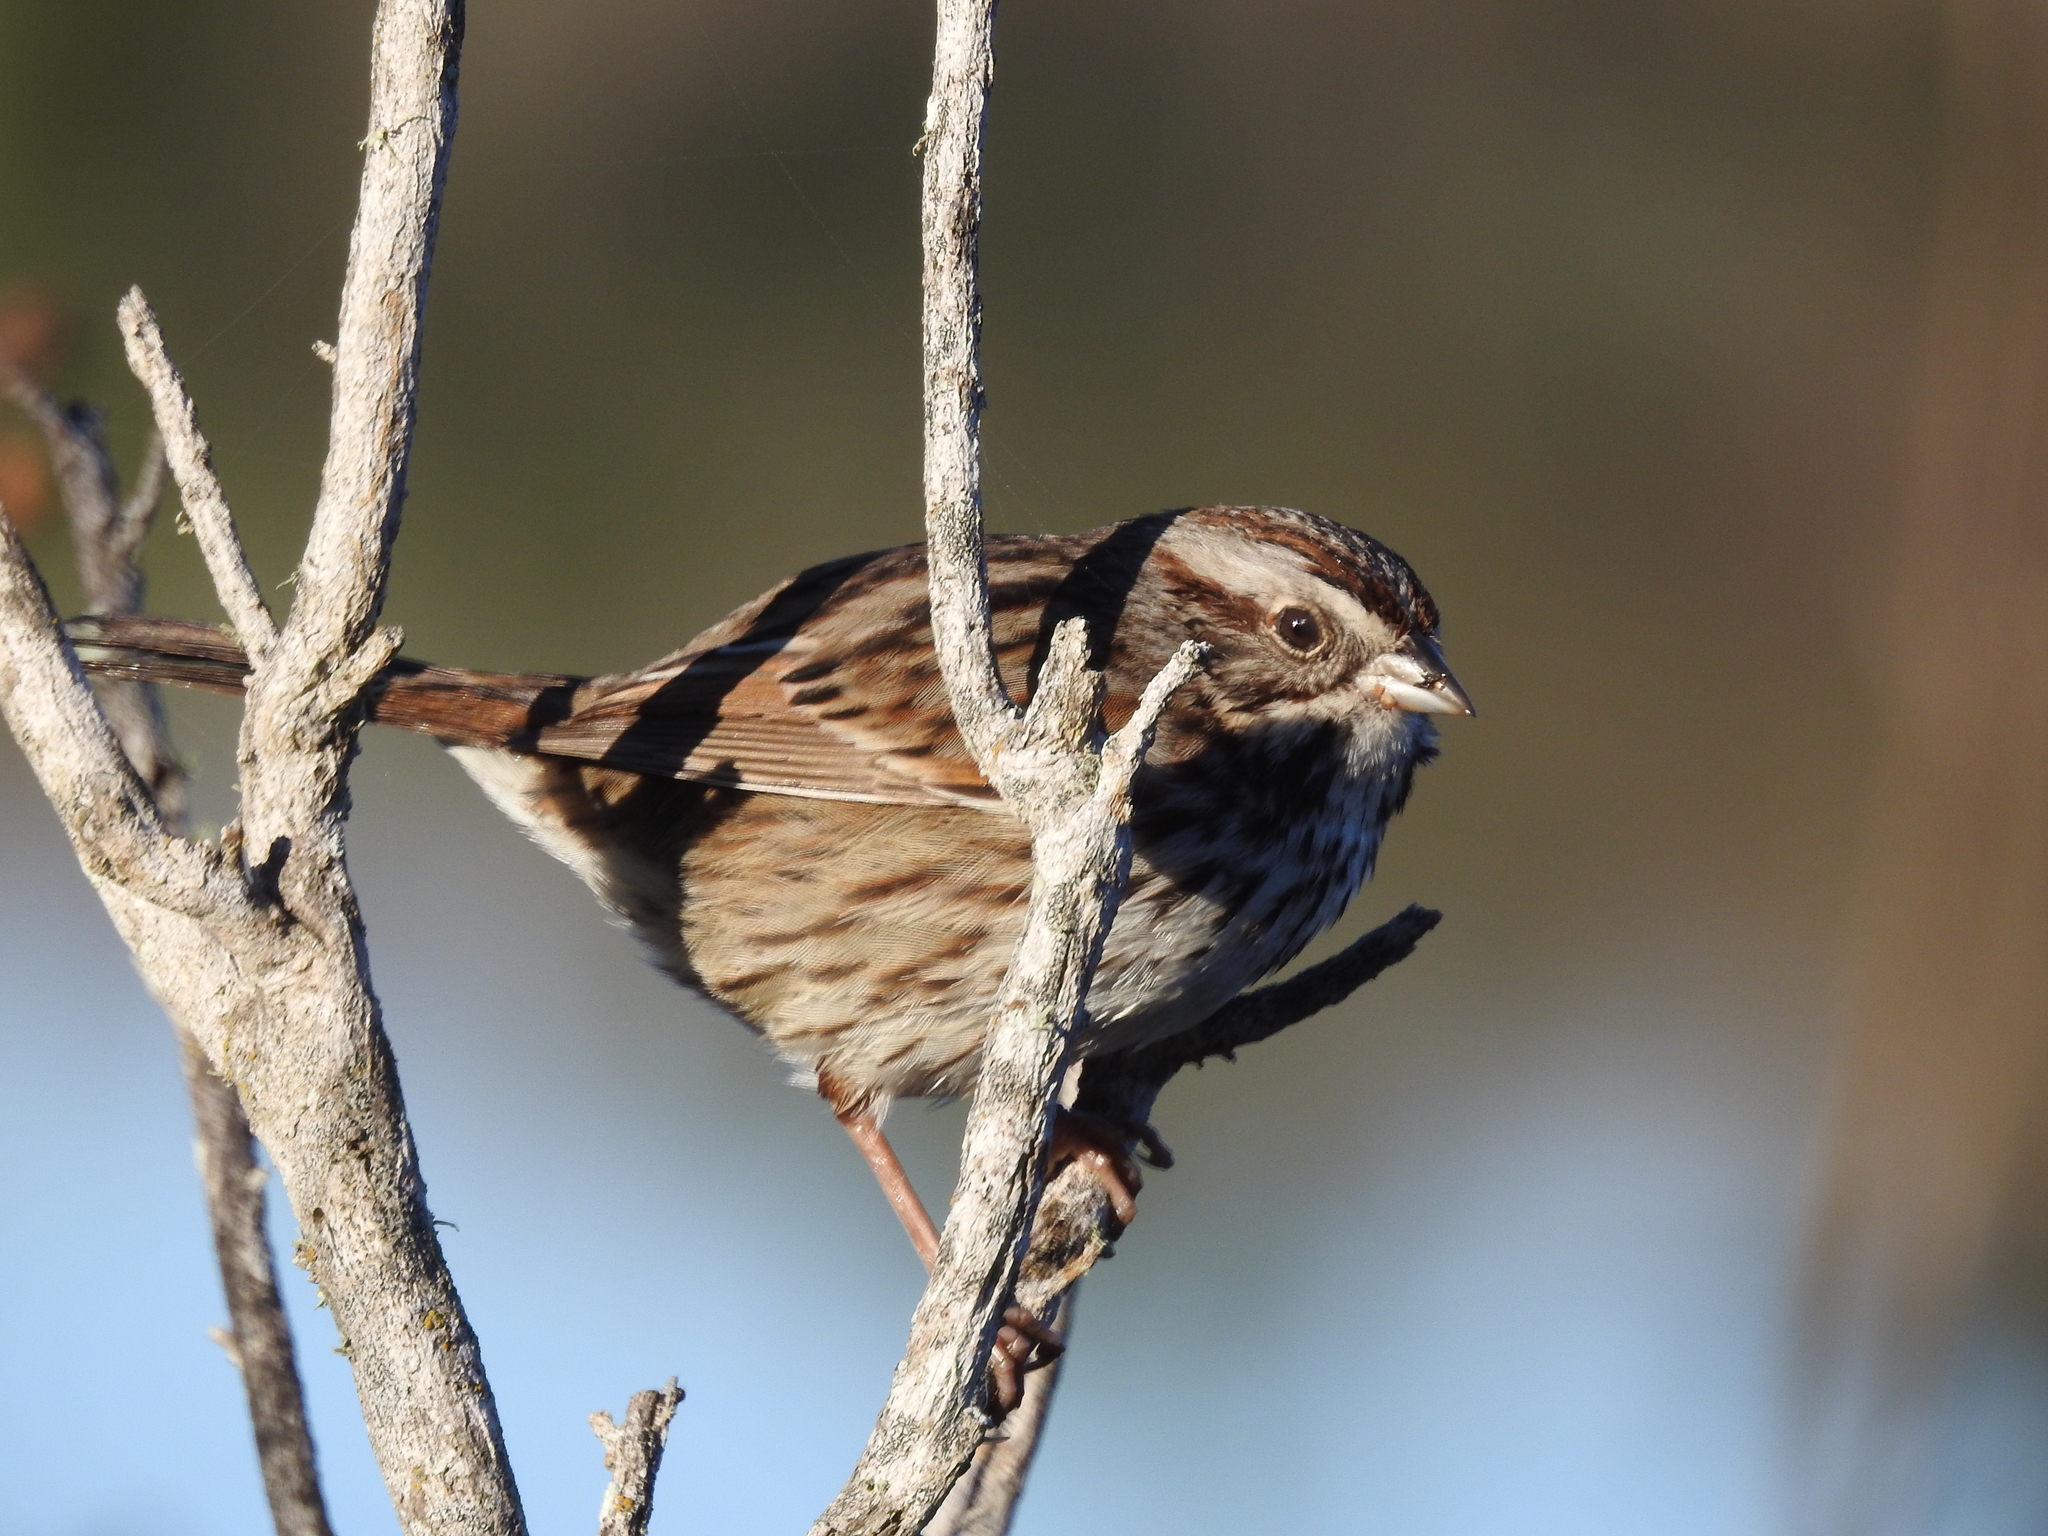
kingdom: Animalia
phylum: Chordata
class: Aves
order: Passeriformes
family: Passerellidae
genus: Melospiza
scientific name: Melospiza melodia
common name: Song sparrow
